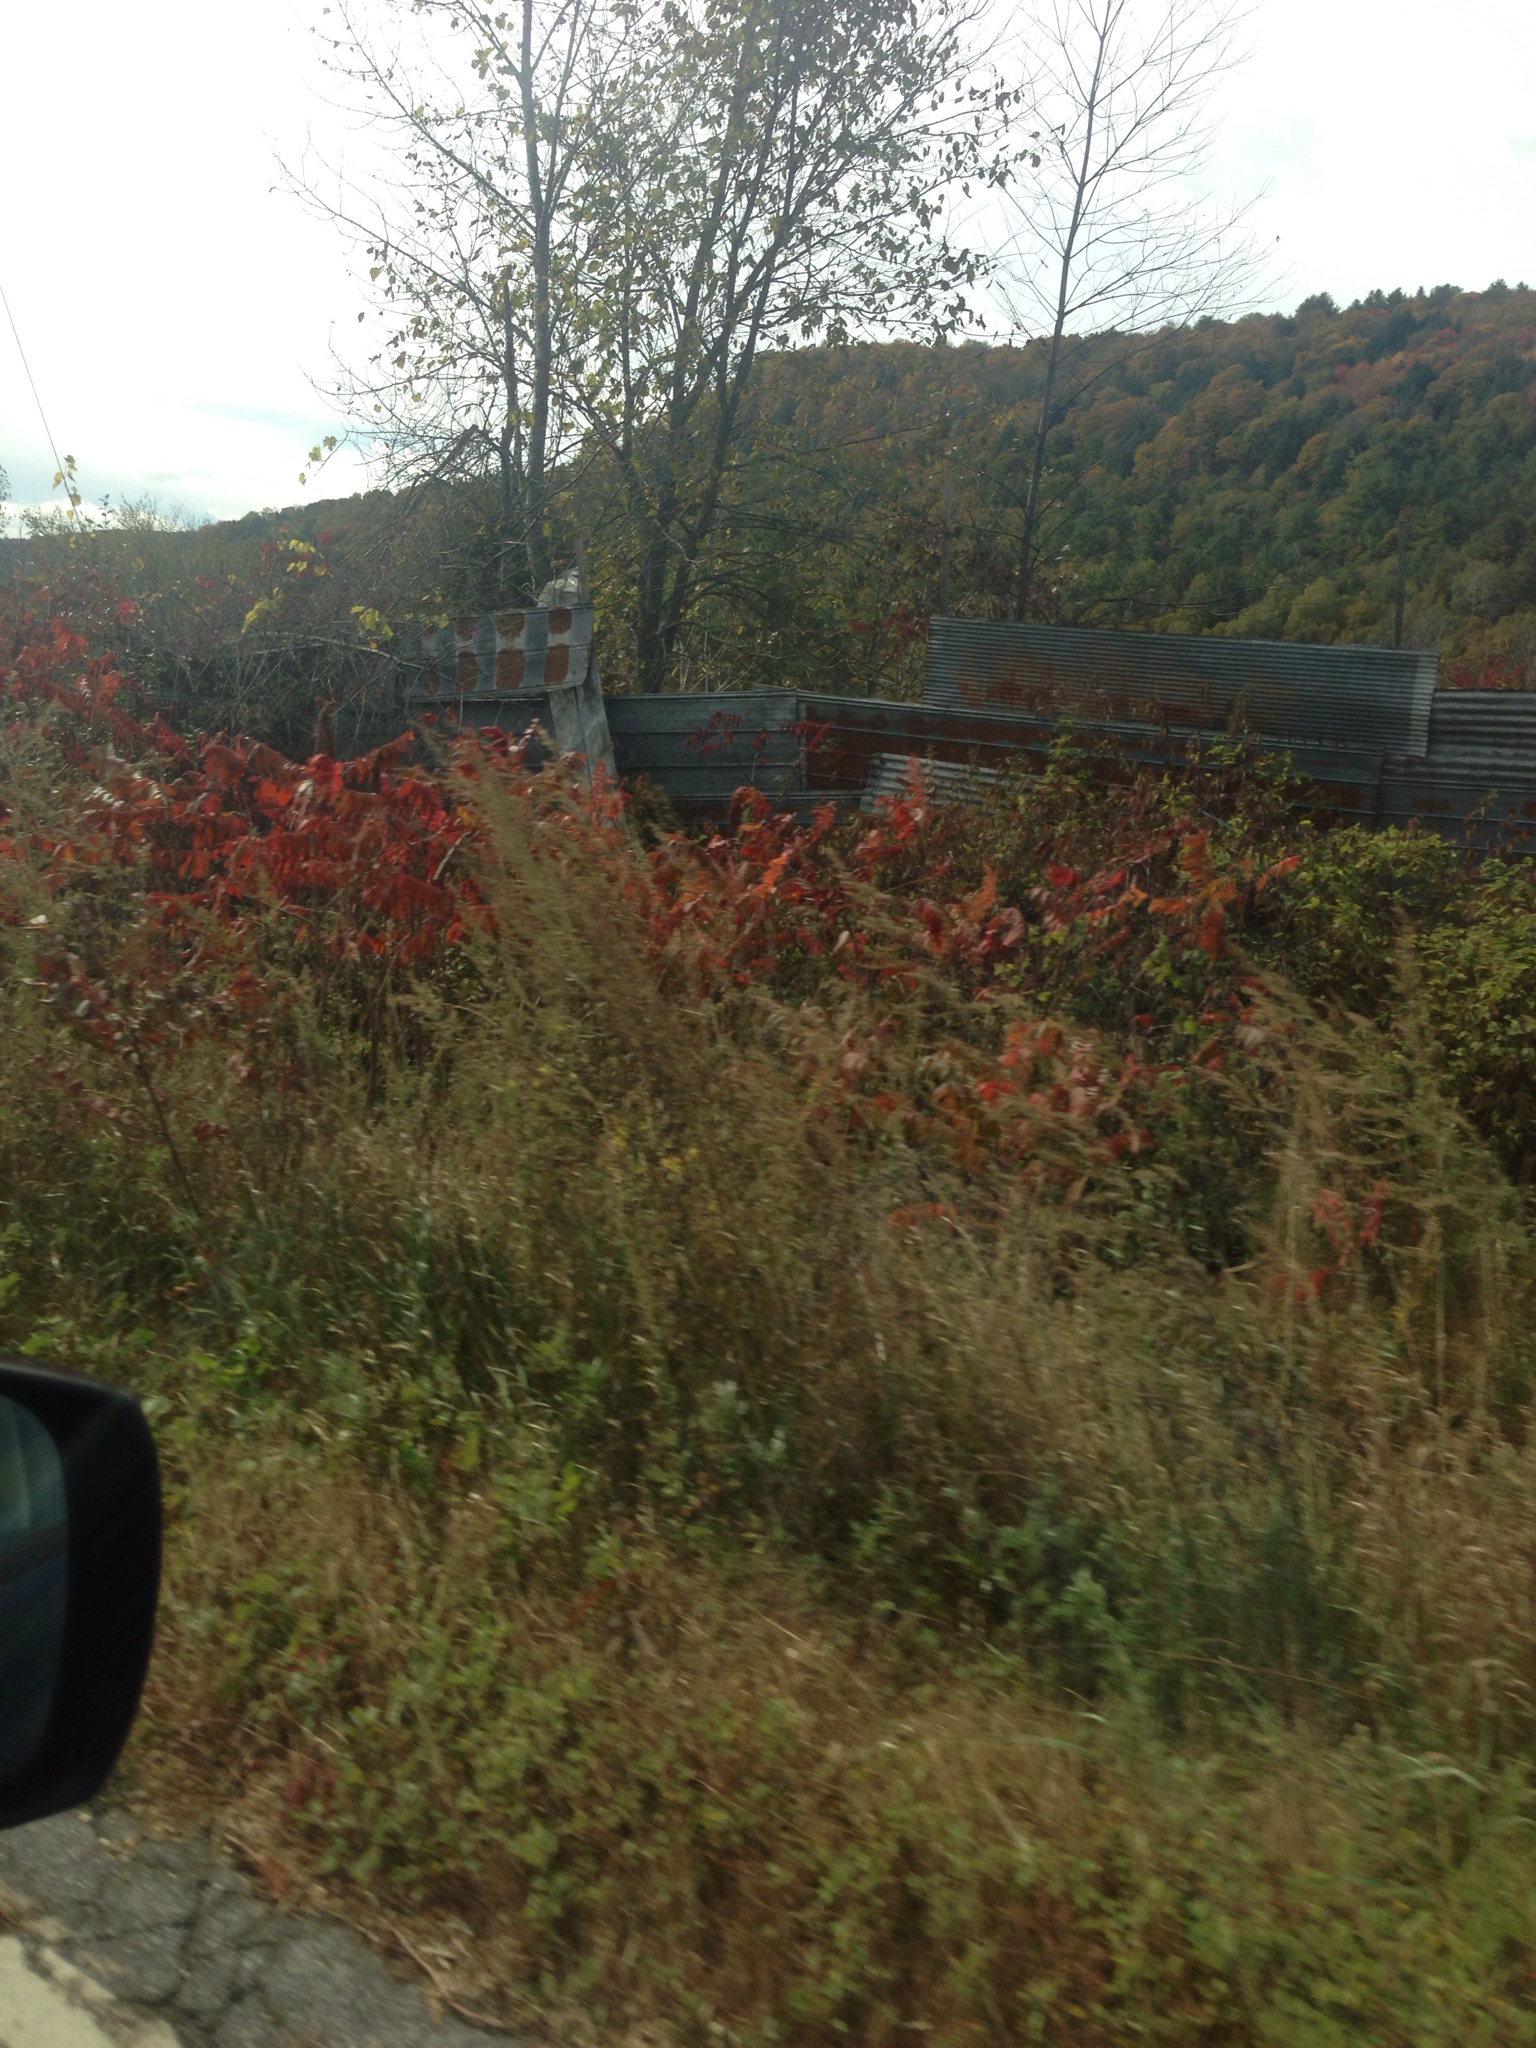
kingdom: Plantae
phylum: Tracheophyta
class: Magnoliopsida
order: Sapindales
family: Anacardiaceae
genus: Rhus
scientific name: Rhus typhina
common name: Staghorn sumac
